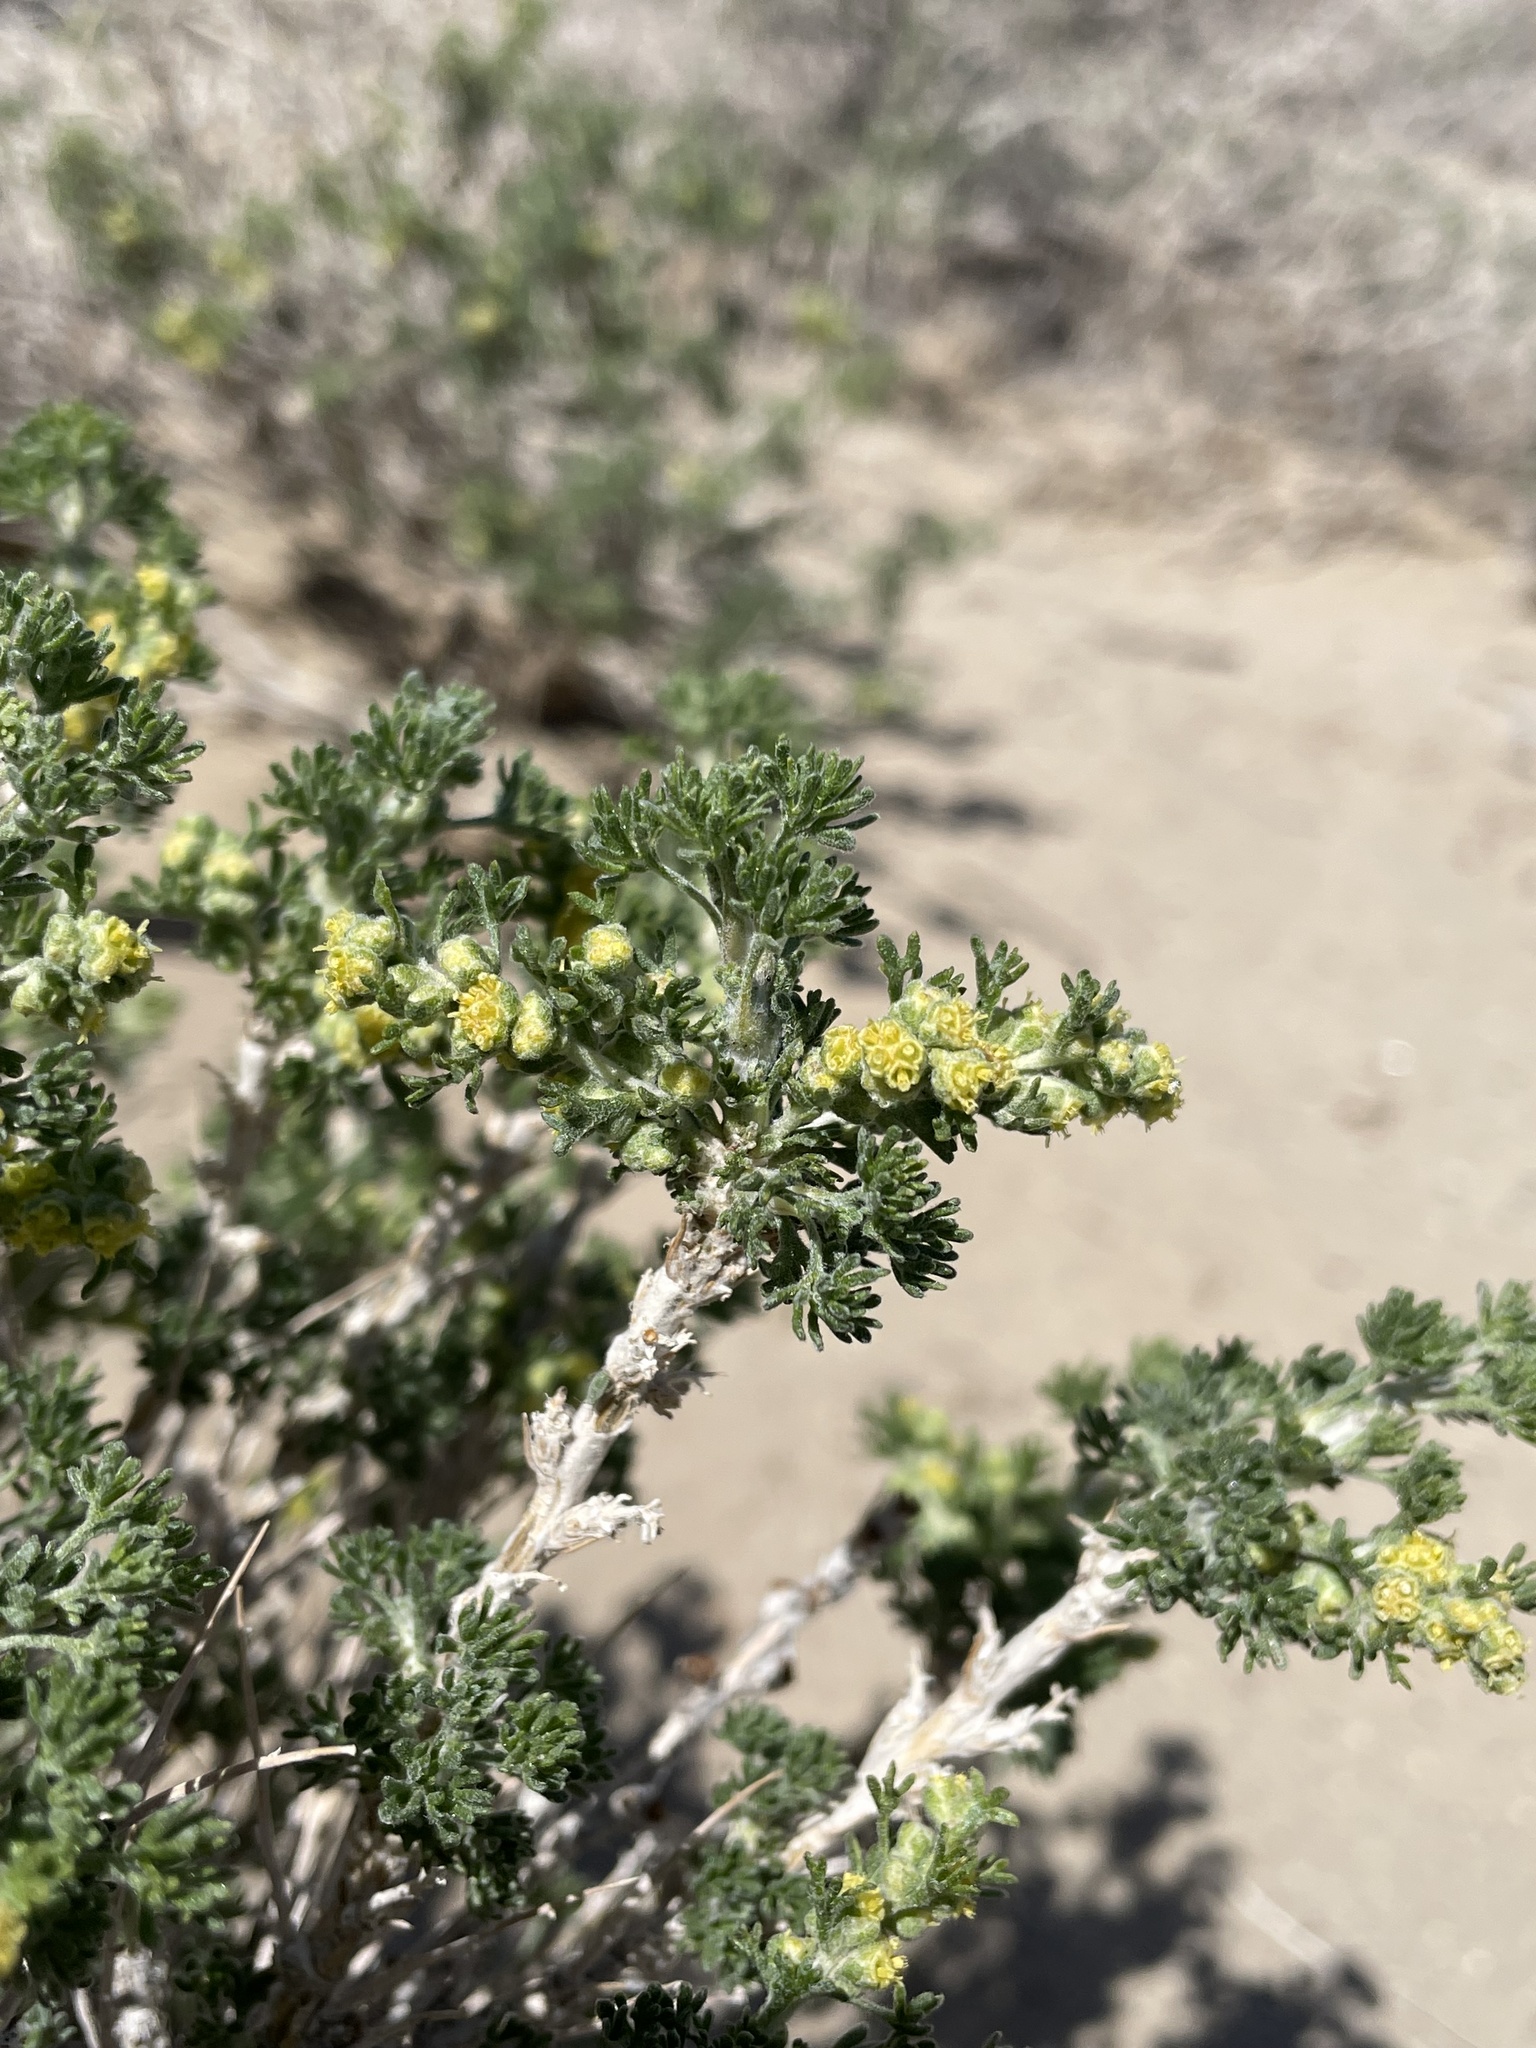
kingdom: Plantae
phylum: Tracheophyta
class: Magnoliopsida
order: Asterales
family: Asteraceae
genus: Artemisia
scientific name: Artemisia spinescens
